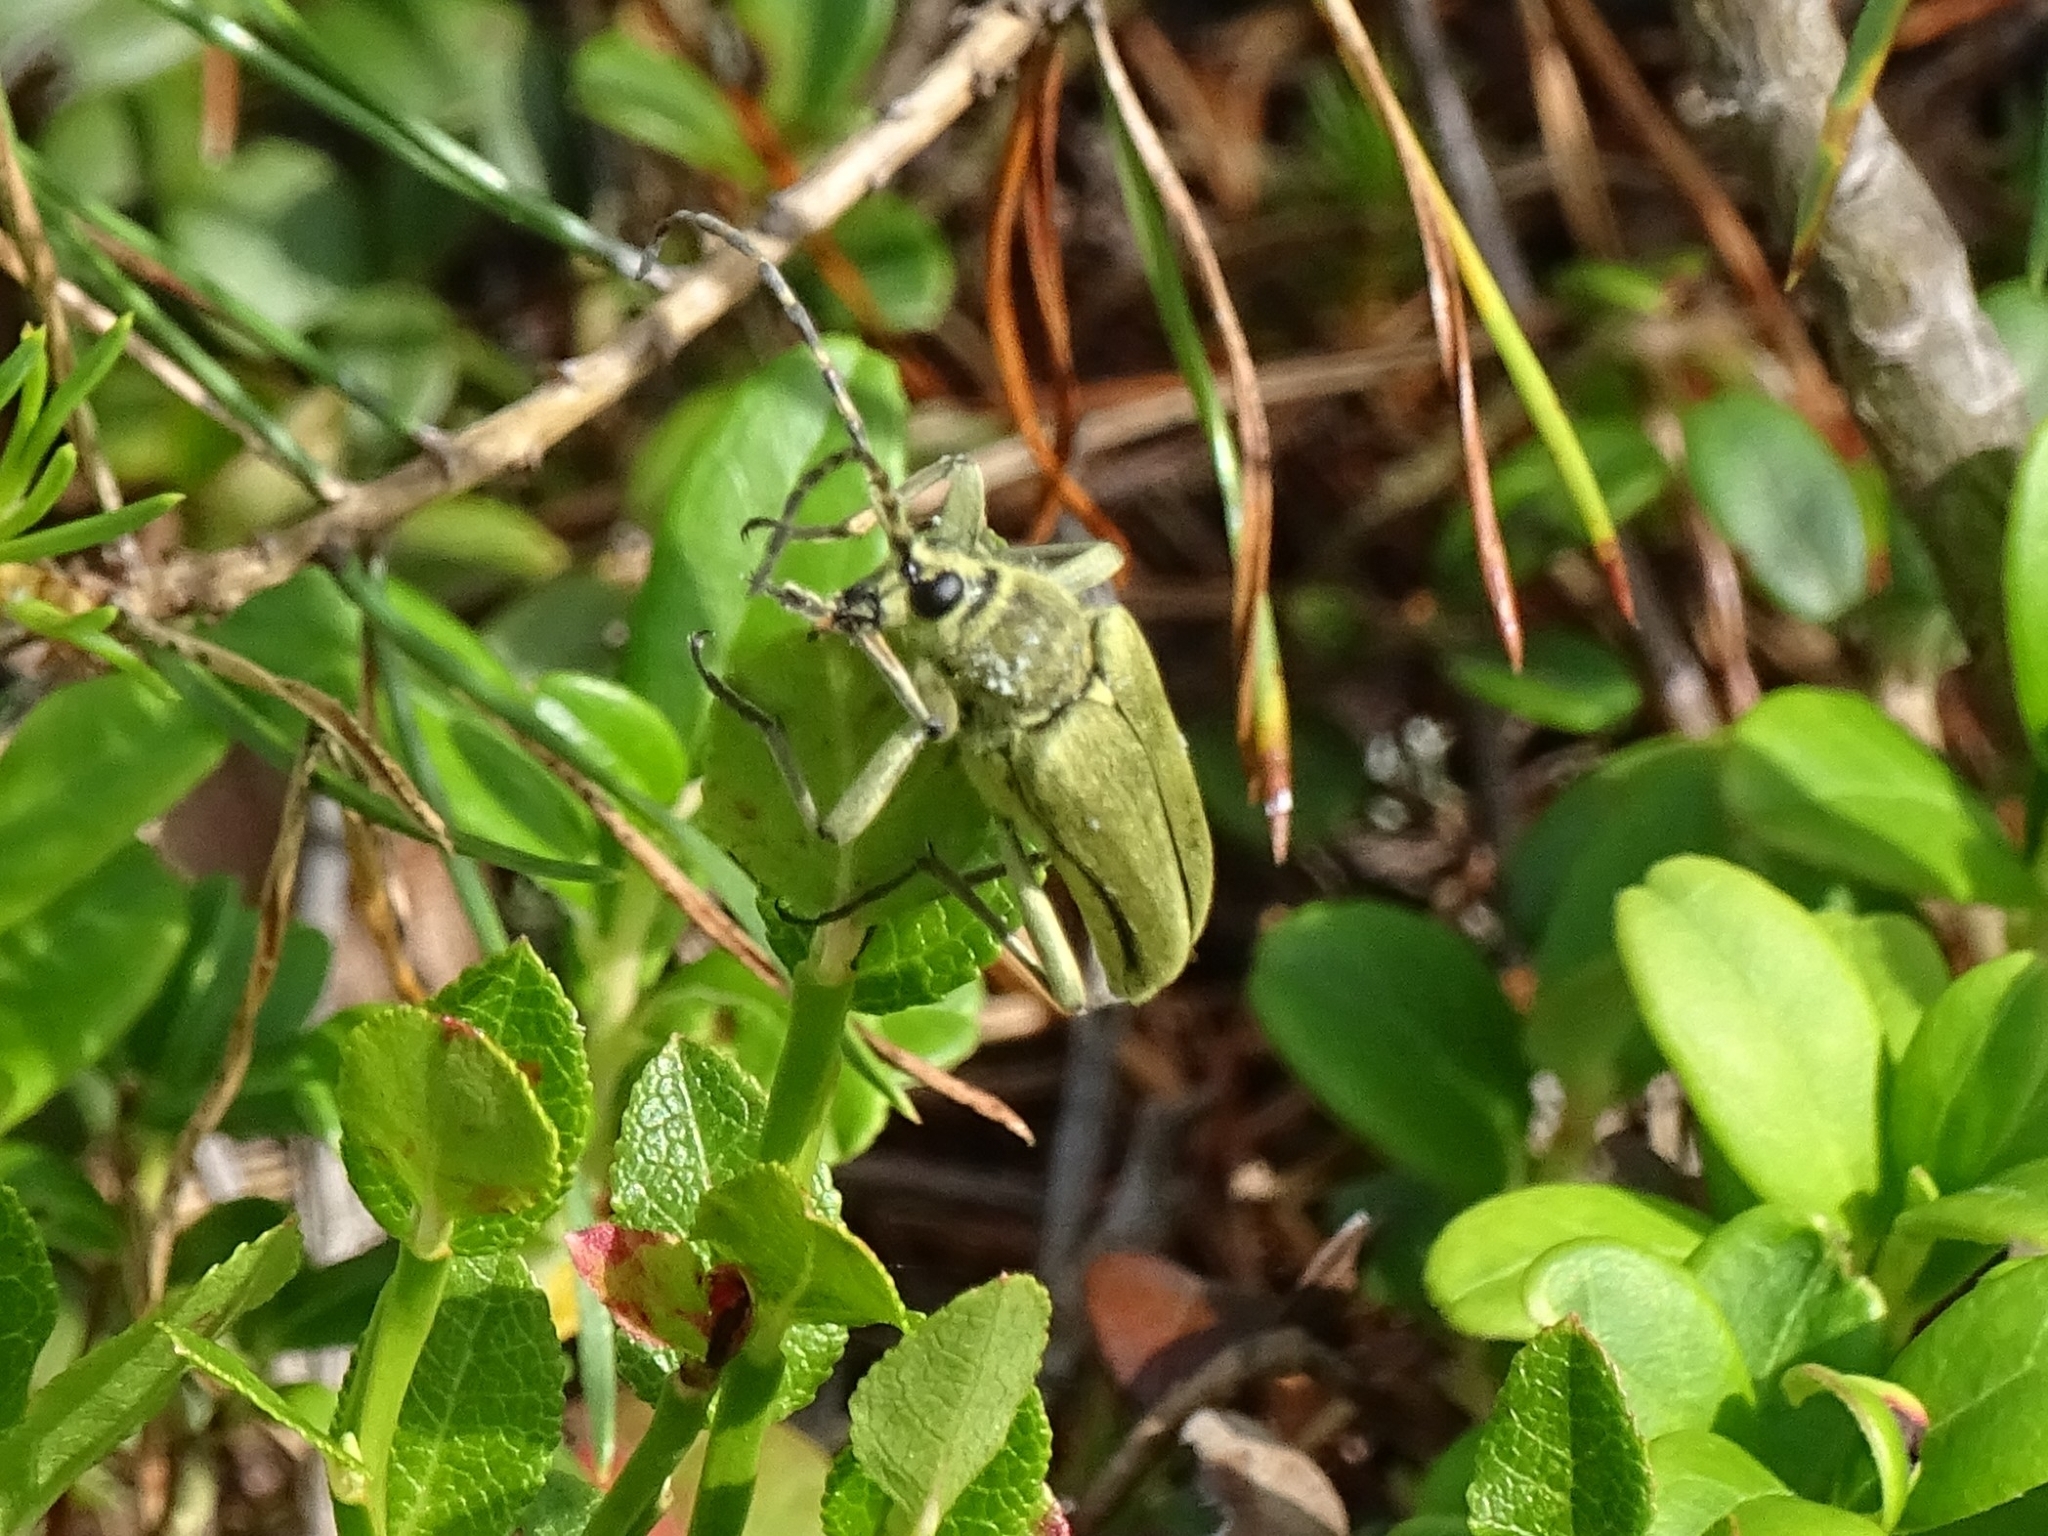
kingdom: Animalia
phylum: Arthropoda
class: Insecta
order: Coleoptera
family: Cerambycidae
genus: Lepturobosca
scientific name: Lepturobosca virens
